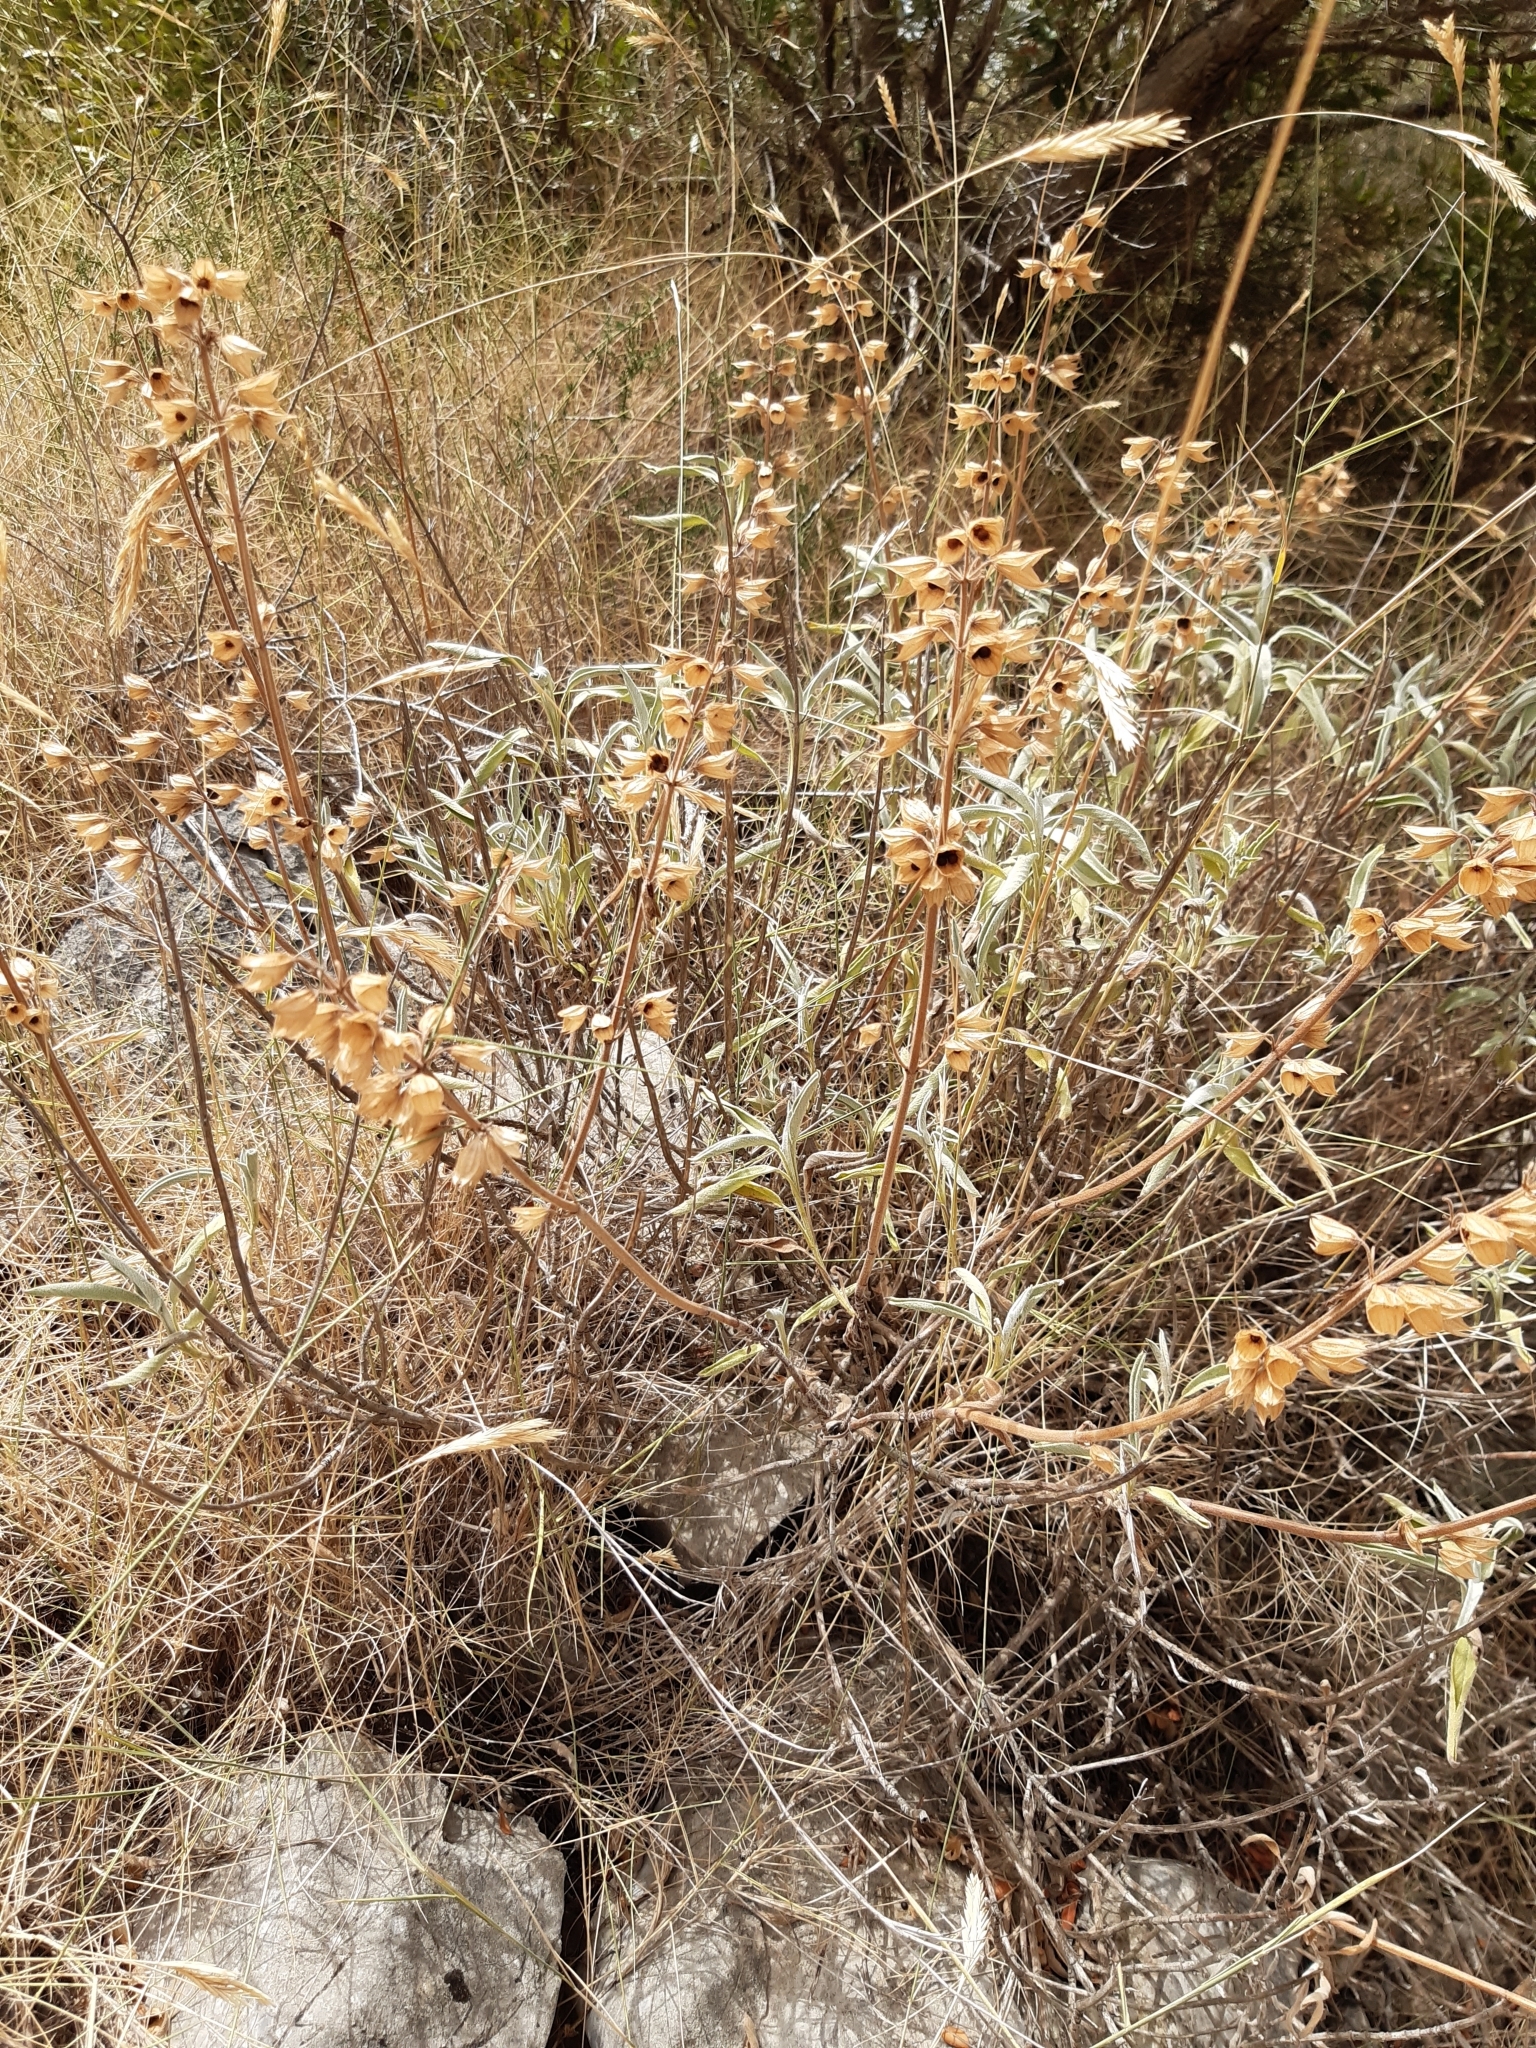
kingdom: Plantae
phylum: Tracheophyta
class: Magnoliopsida
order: Lamiales
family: Lamiaceae
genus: Salvia
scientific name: Salvia officinalis
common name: Sage
